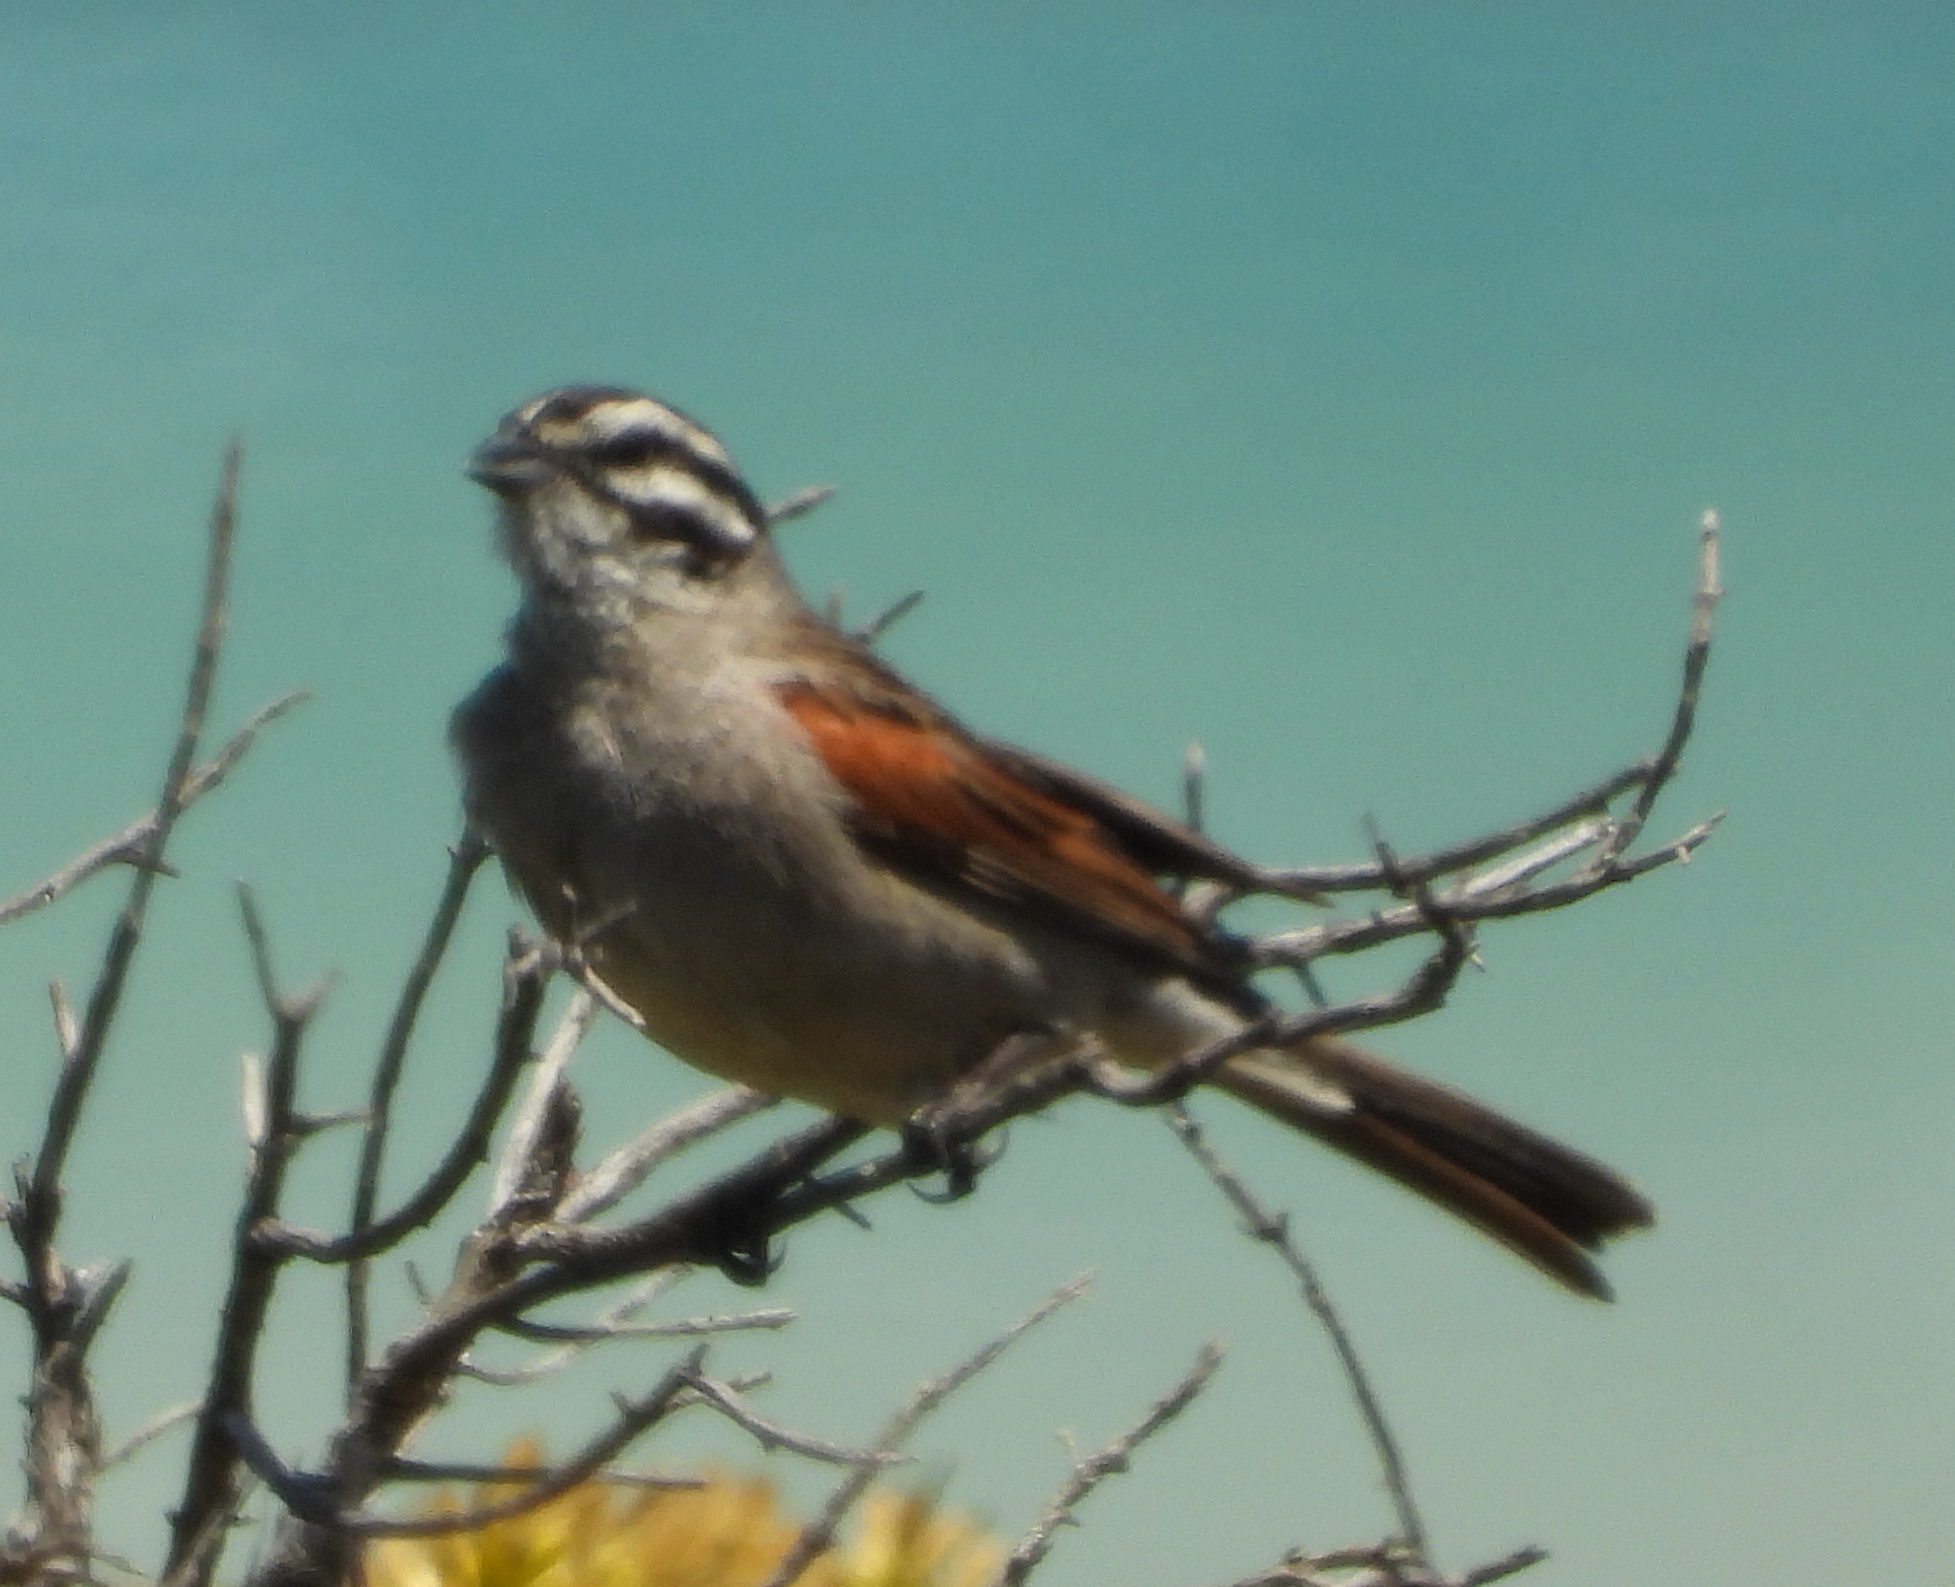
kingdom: Animalia
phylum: Chordata
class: Aves
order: Passeriformes
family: Emberizidae
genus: Emberiza
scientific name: Emberiza capensis
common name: Cape bunting
